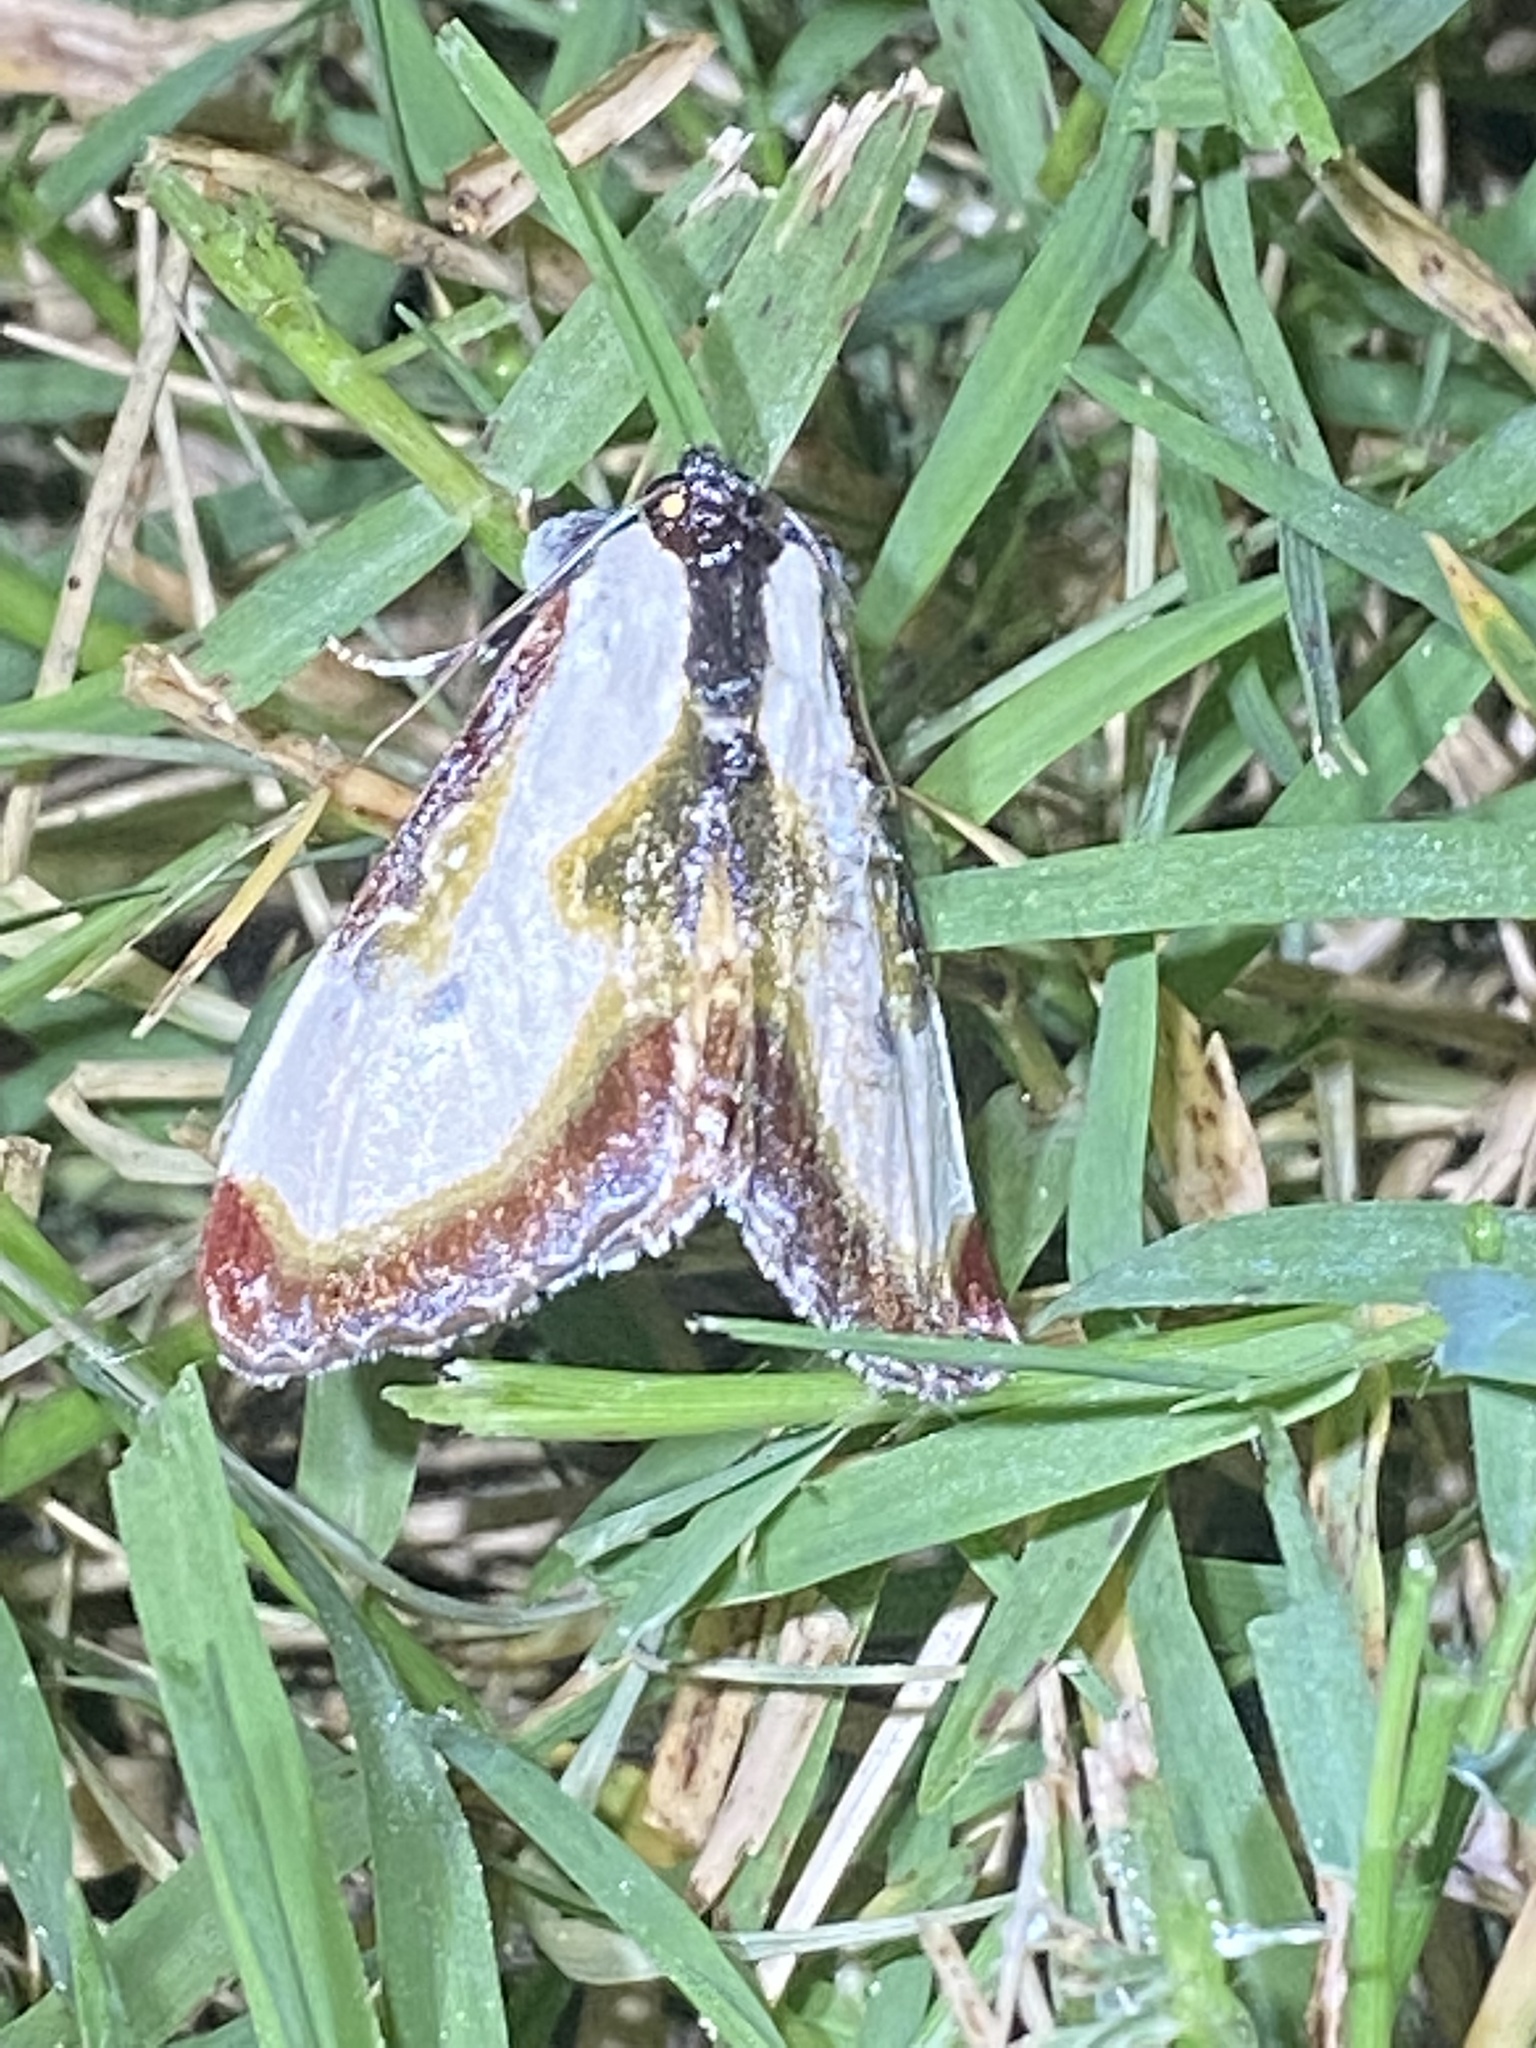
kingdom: Animalia
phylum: Arthropoda
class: Insecta
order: Lepidoptera
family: Noctuidae
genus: Eudryas
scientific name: Eudryas grata
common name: Beautiful wood-nymph
